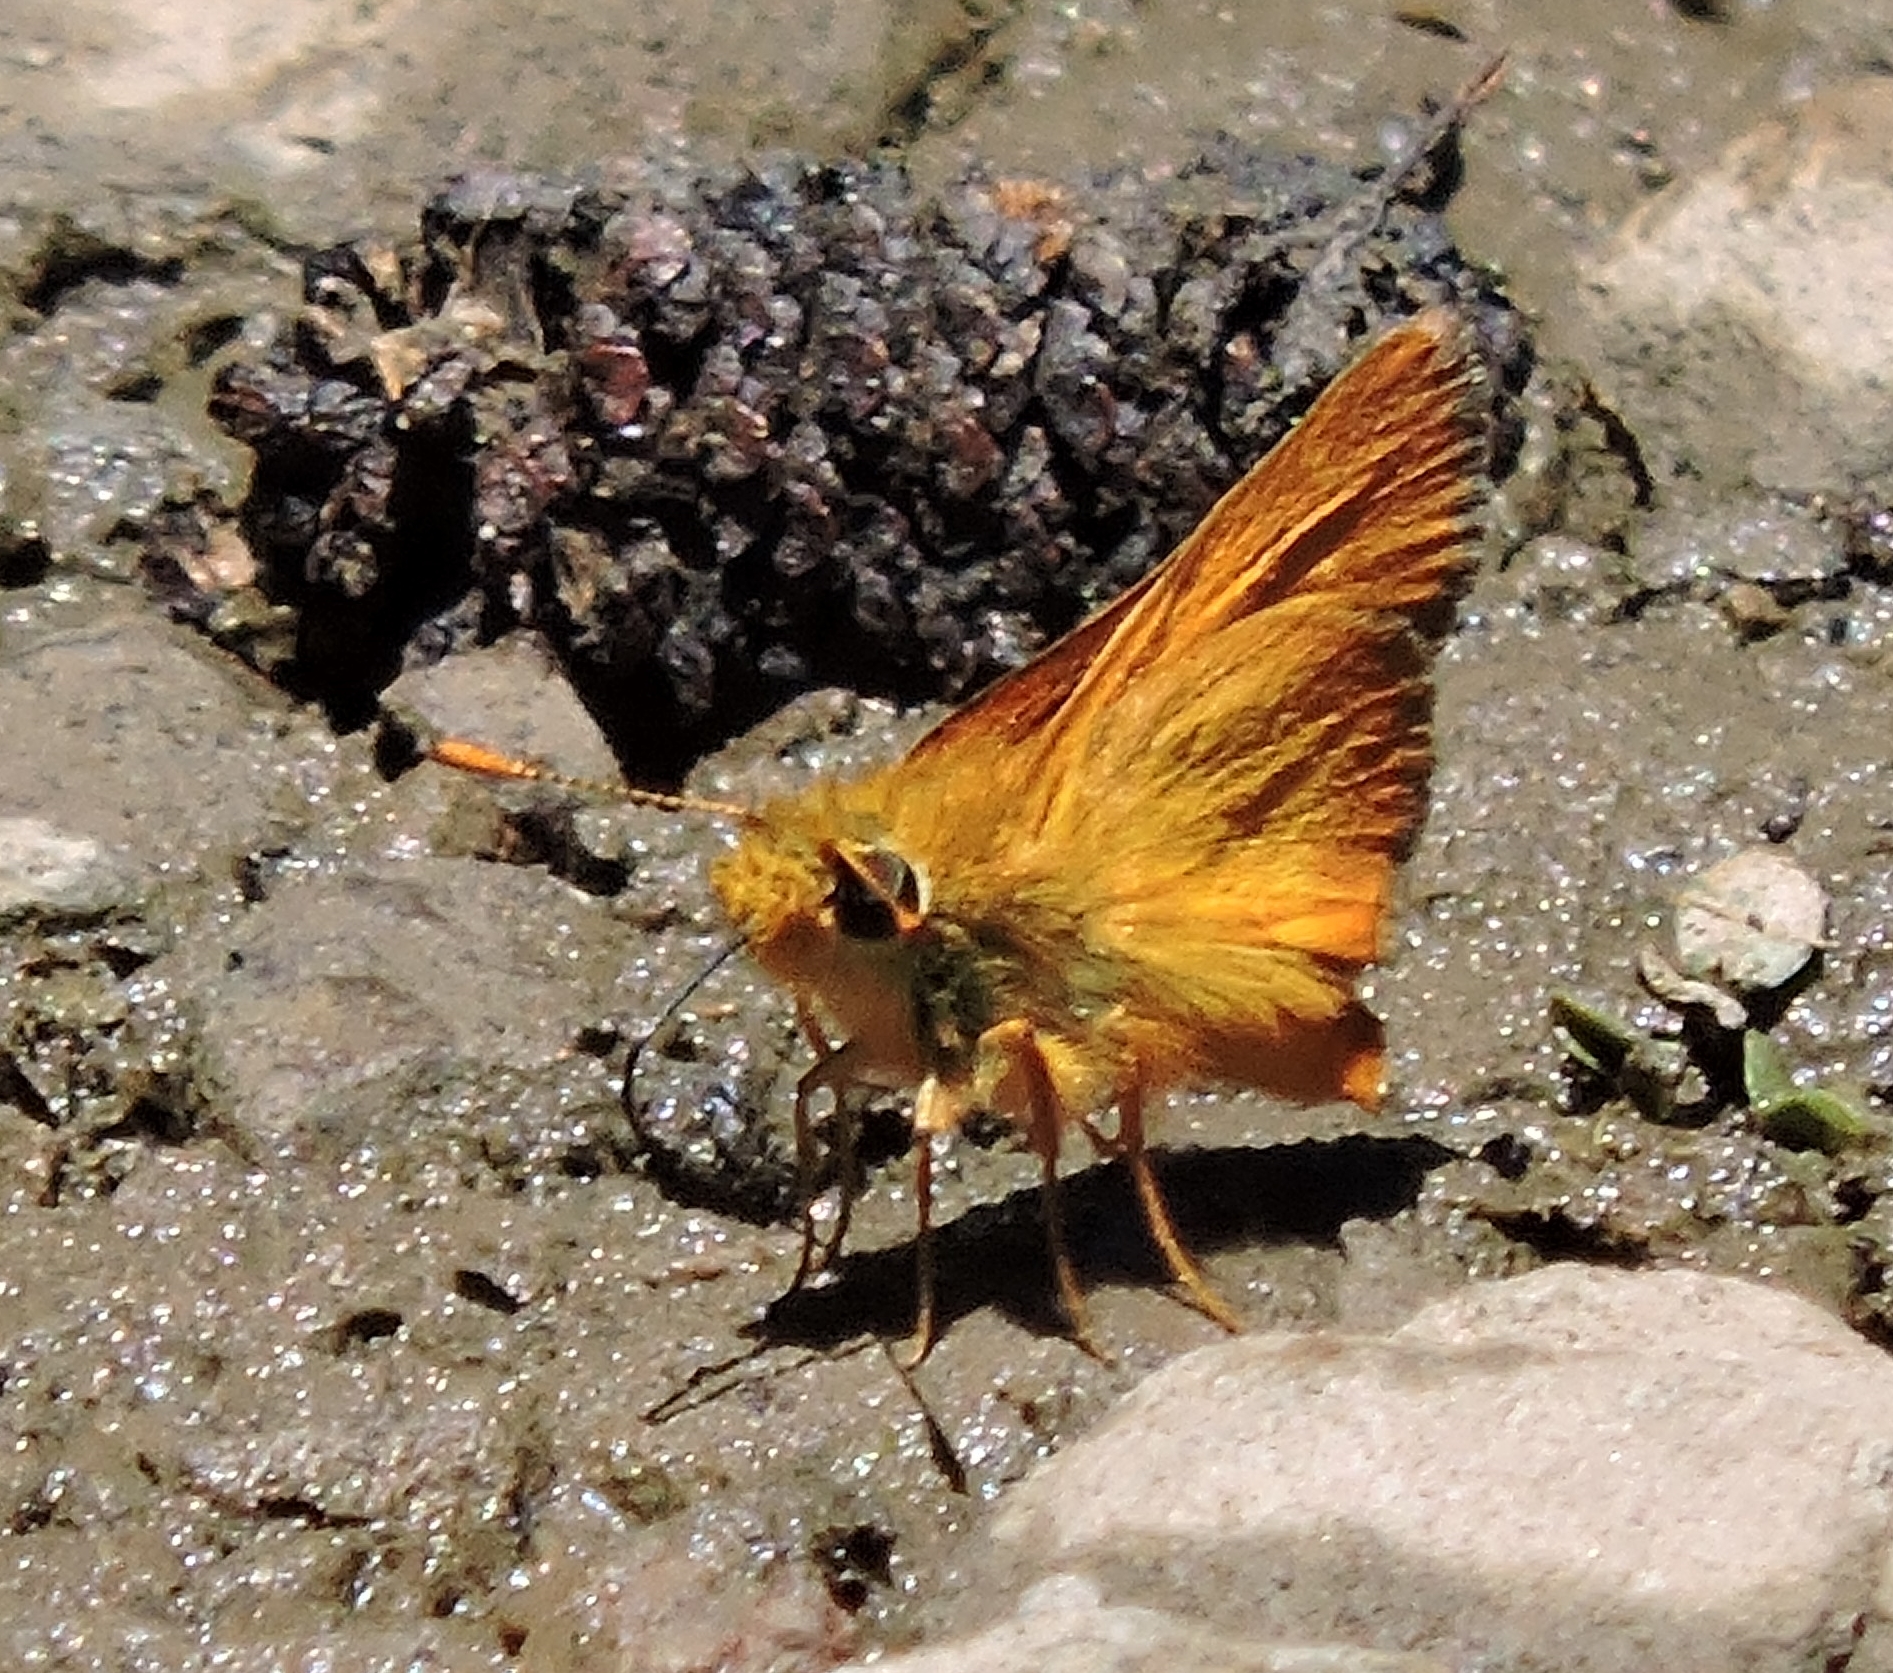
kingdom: Animalia
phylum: Arthropoda
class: Insecta
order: Lepidoptera
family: Hesperiidae
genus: Ochlodes
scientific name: Ochlodes agricola
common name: Rural skipper
